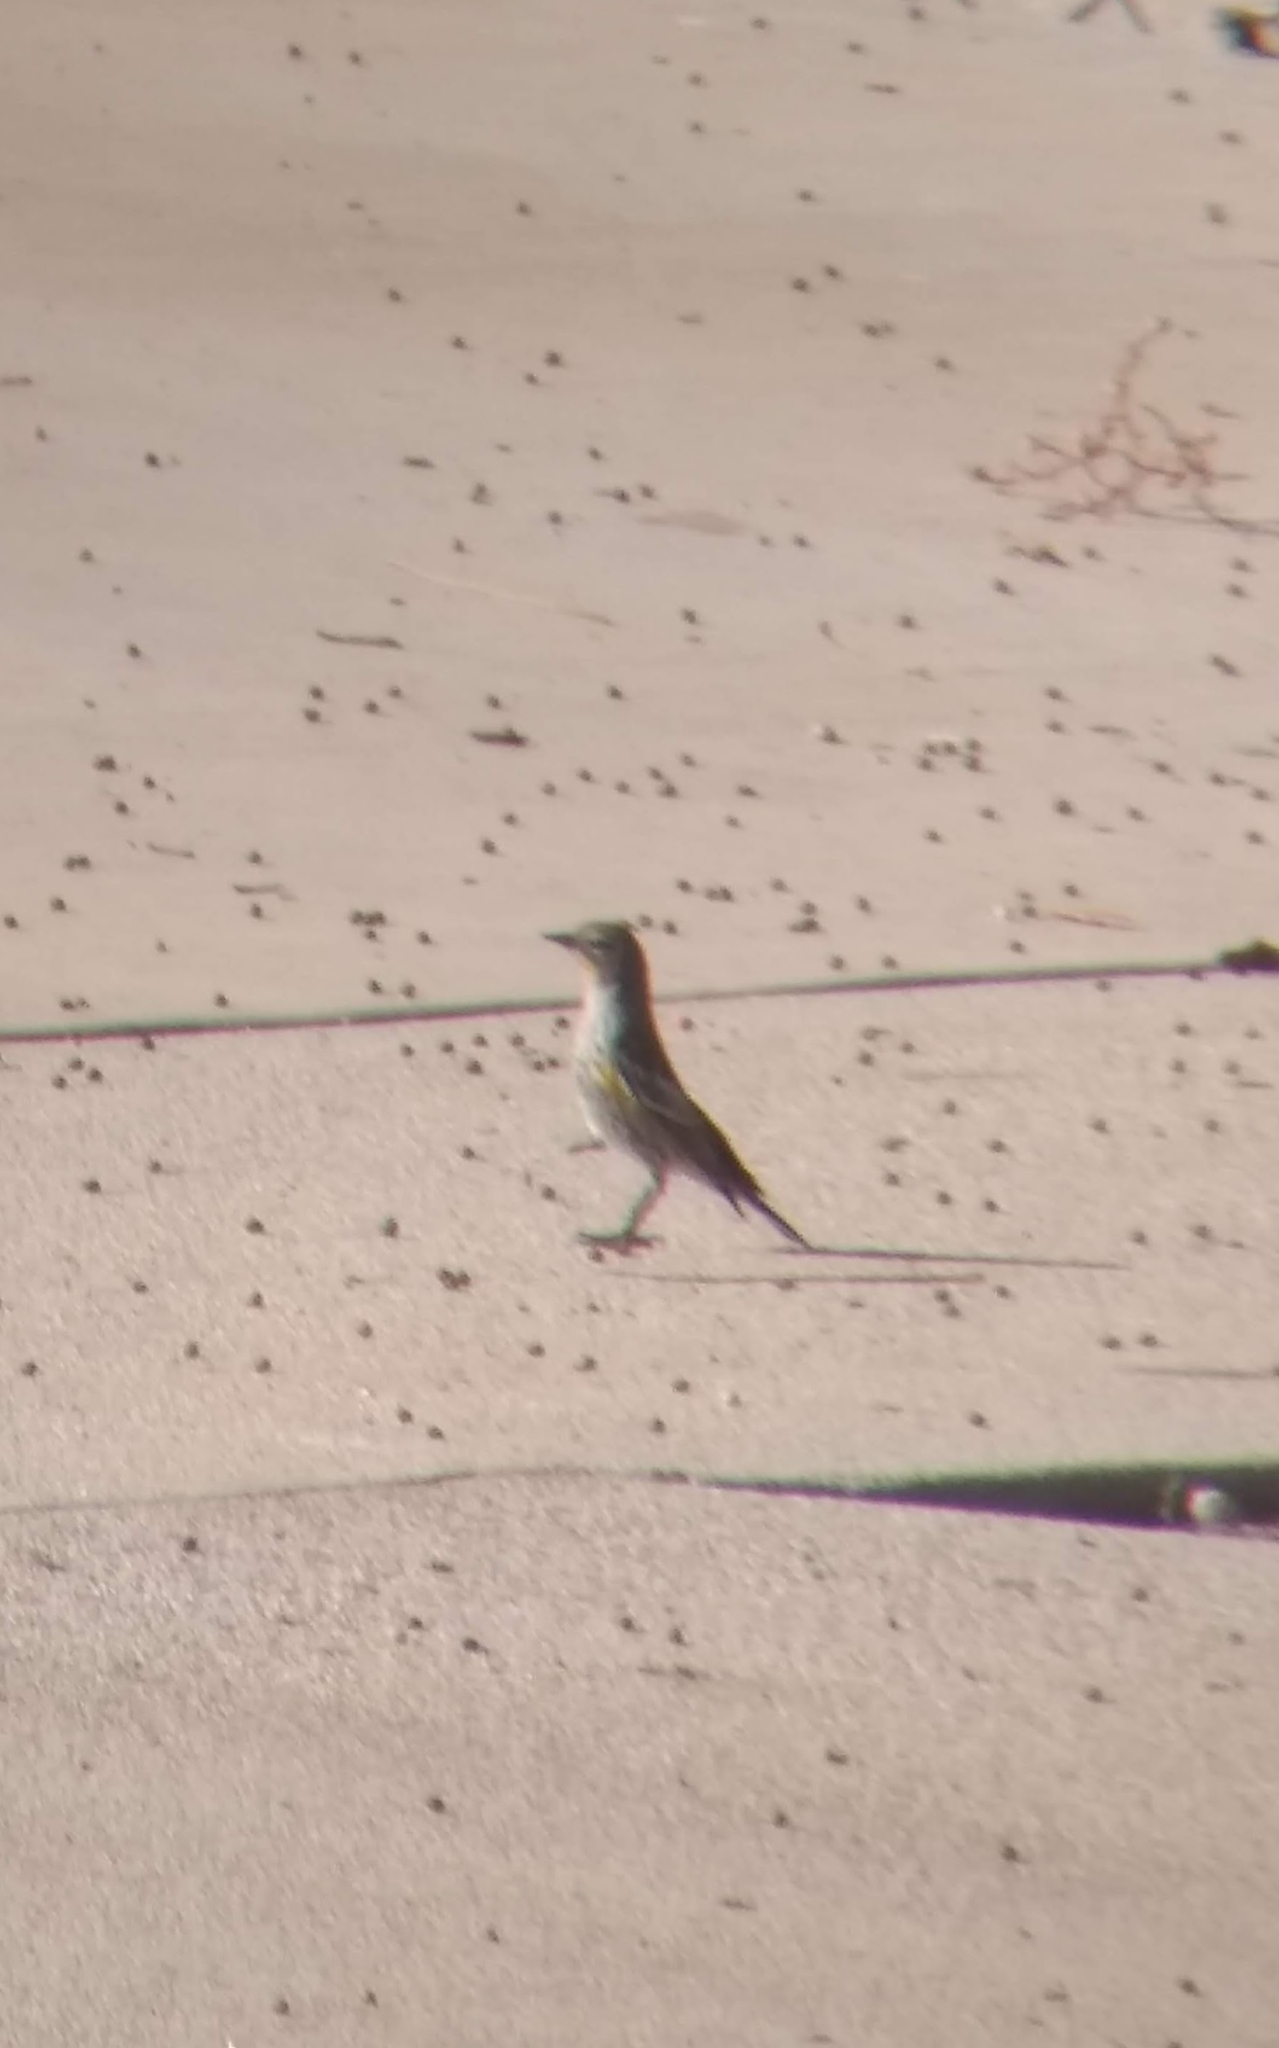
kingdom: Animalia
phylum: Chordata
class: Aves
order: Passeriformes
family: Parulidae
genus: Setophaga
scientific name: Setophaga coronata
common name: Myrtle warbler
